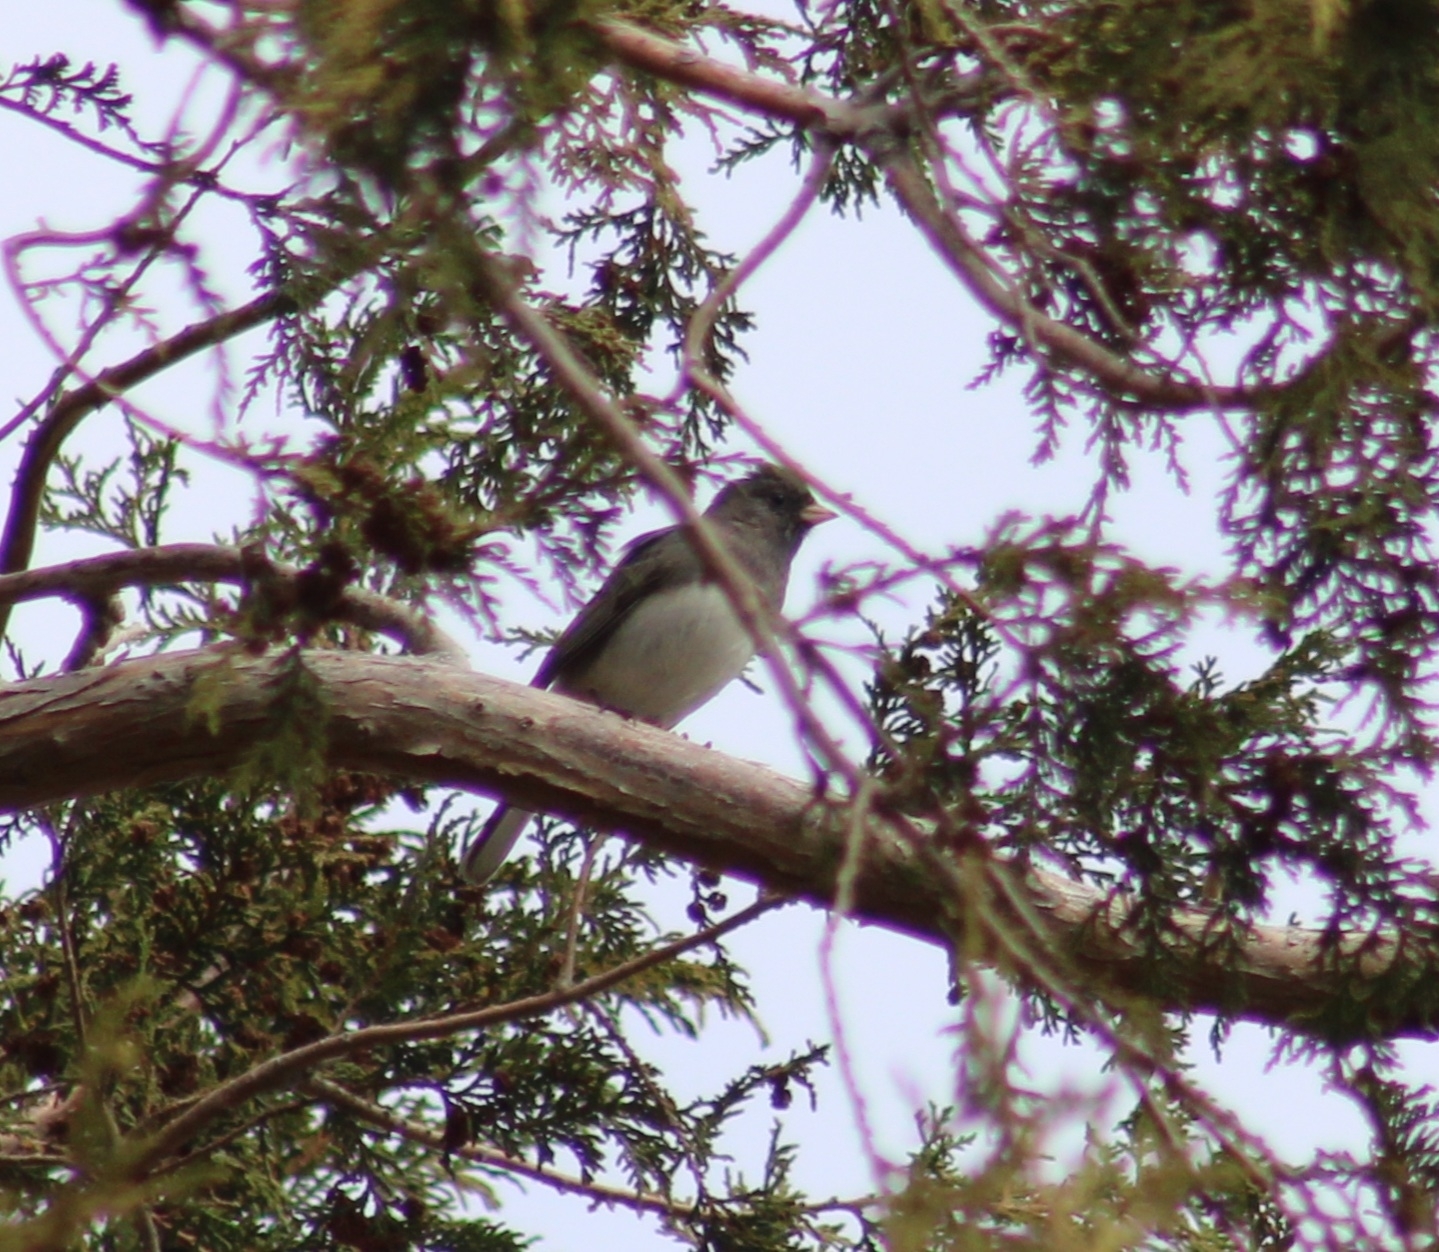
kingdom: Animalia
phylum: Chordata
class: Aves
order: Passeriformes
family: Passerellidae
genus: Junco
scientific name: Junco hyemalis
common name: Dark-eyed junco
